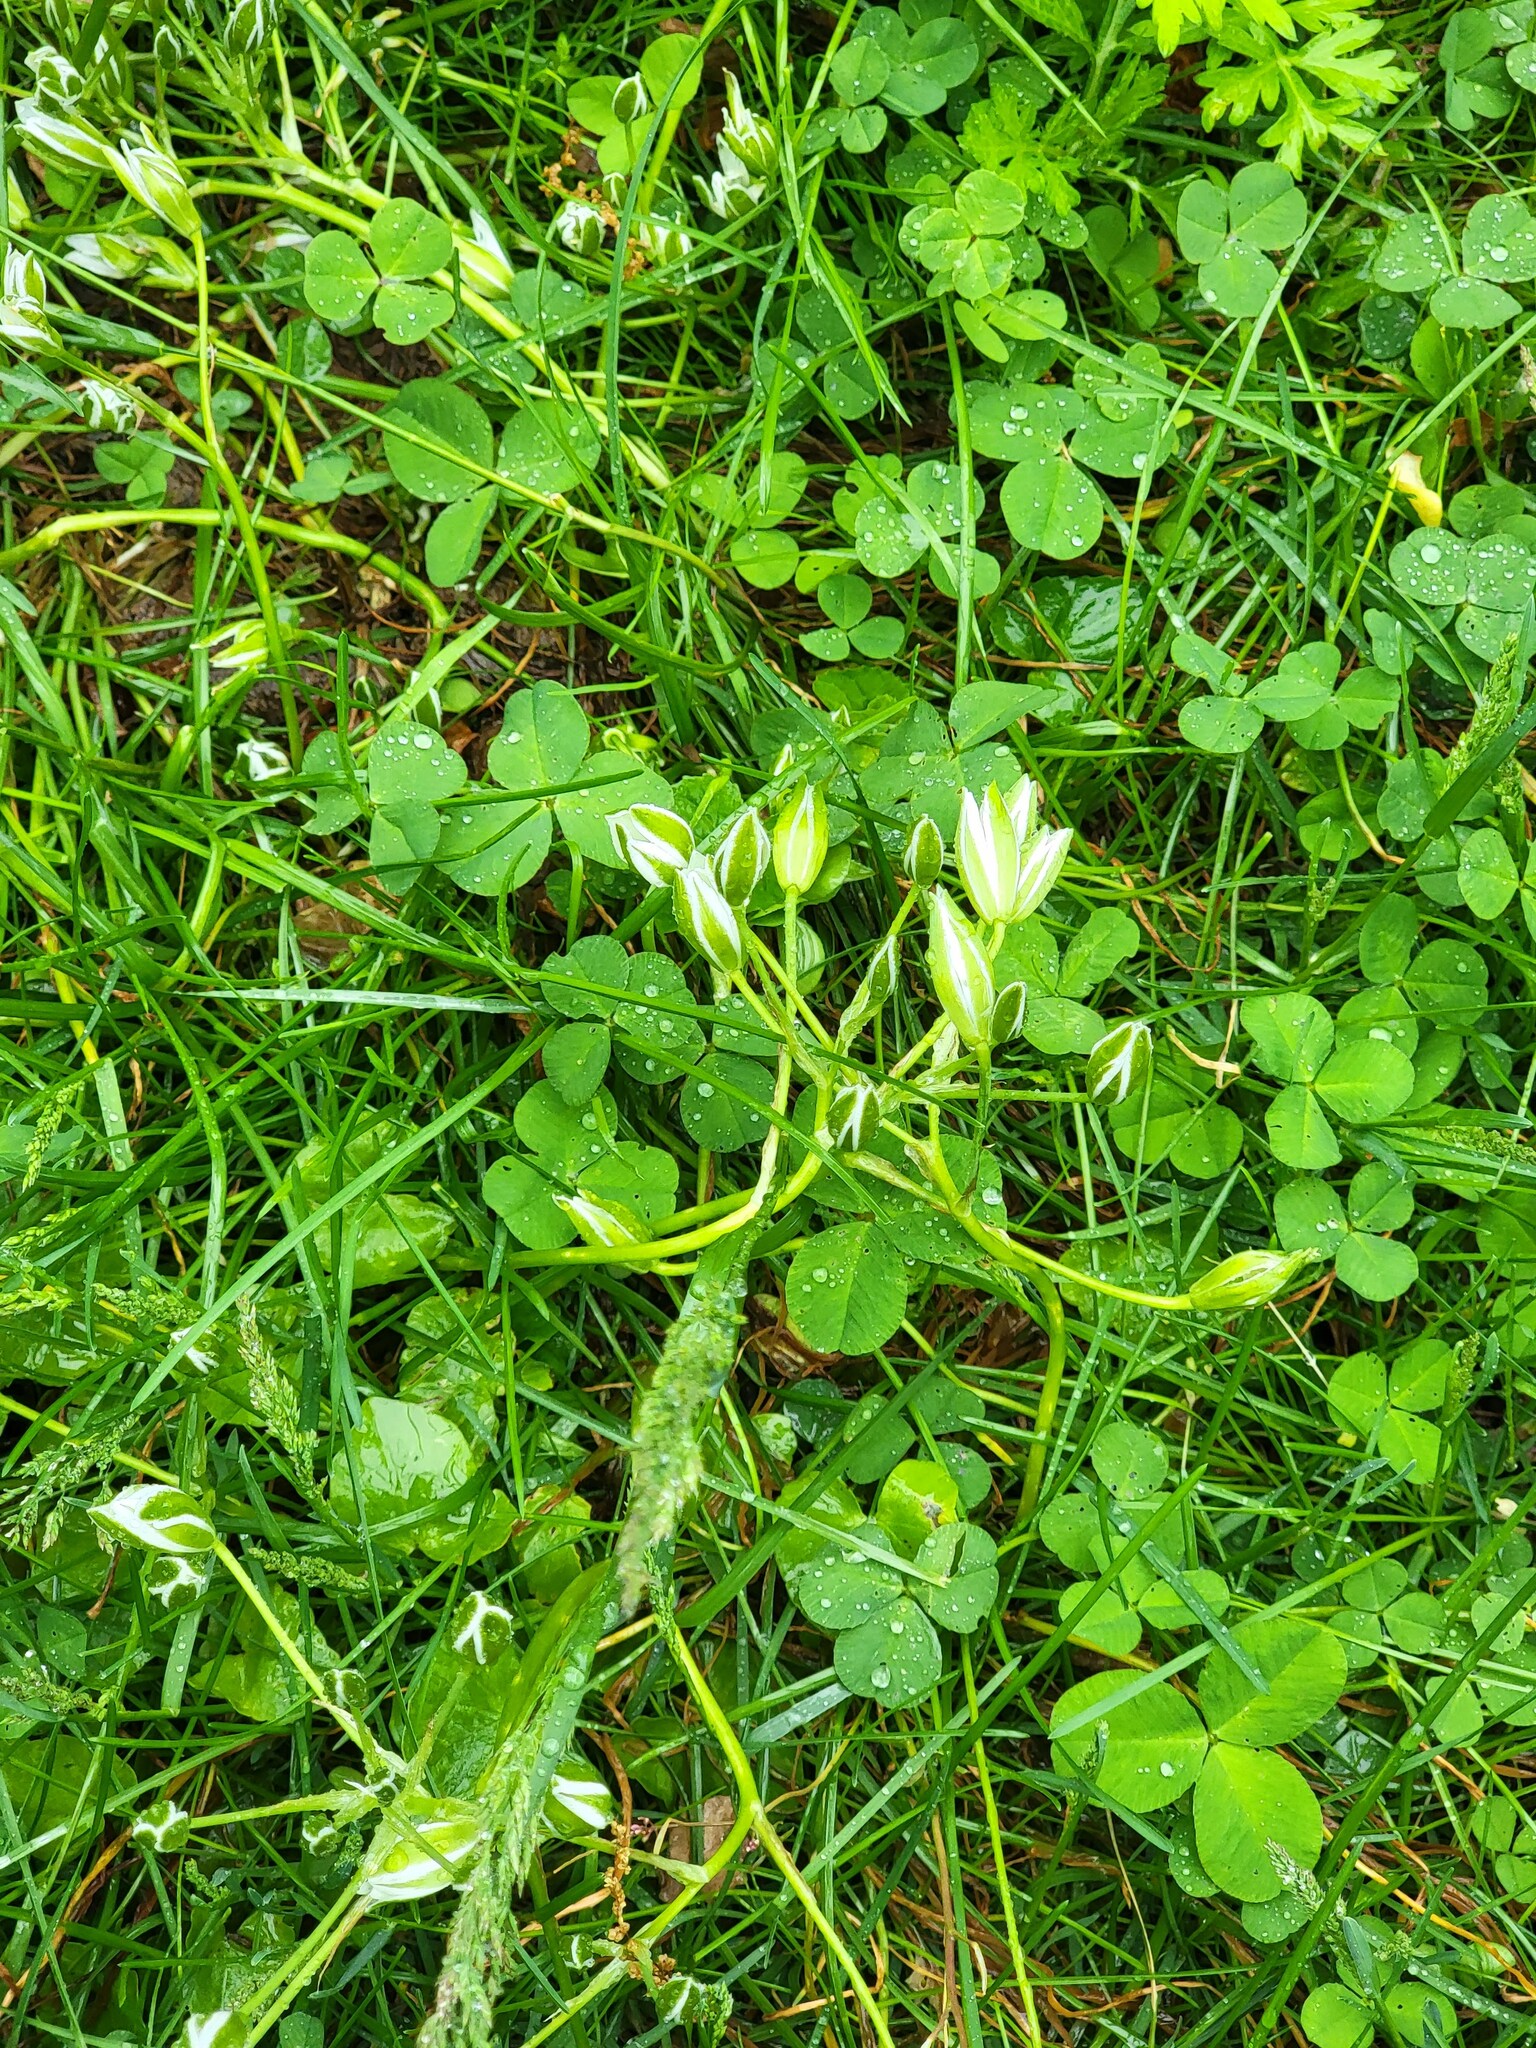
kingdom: Plantae
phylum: Tracheophyta
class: Liliopsida
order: Asparagales
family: Asparagaceae
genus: Ornithogalum
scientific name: Ornithogalum umbellatum
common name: Garden star-of-bethlehem
